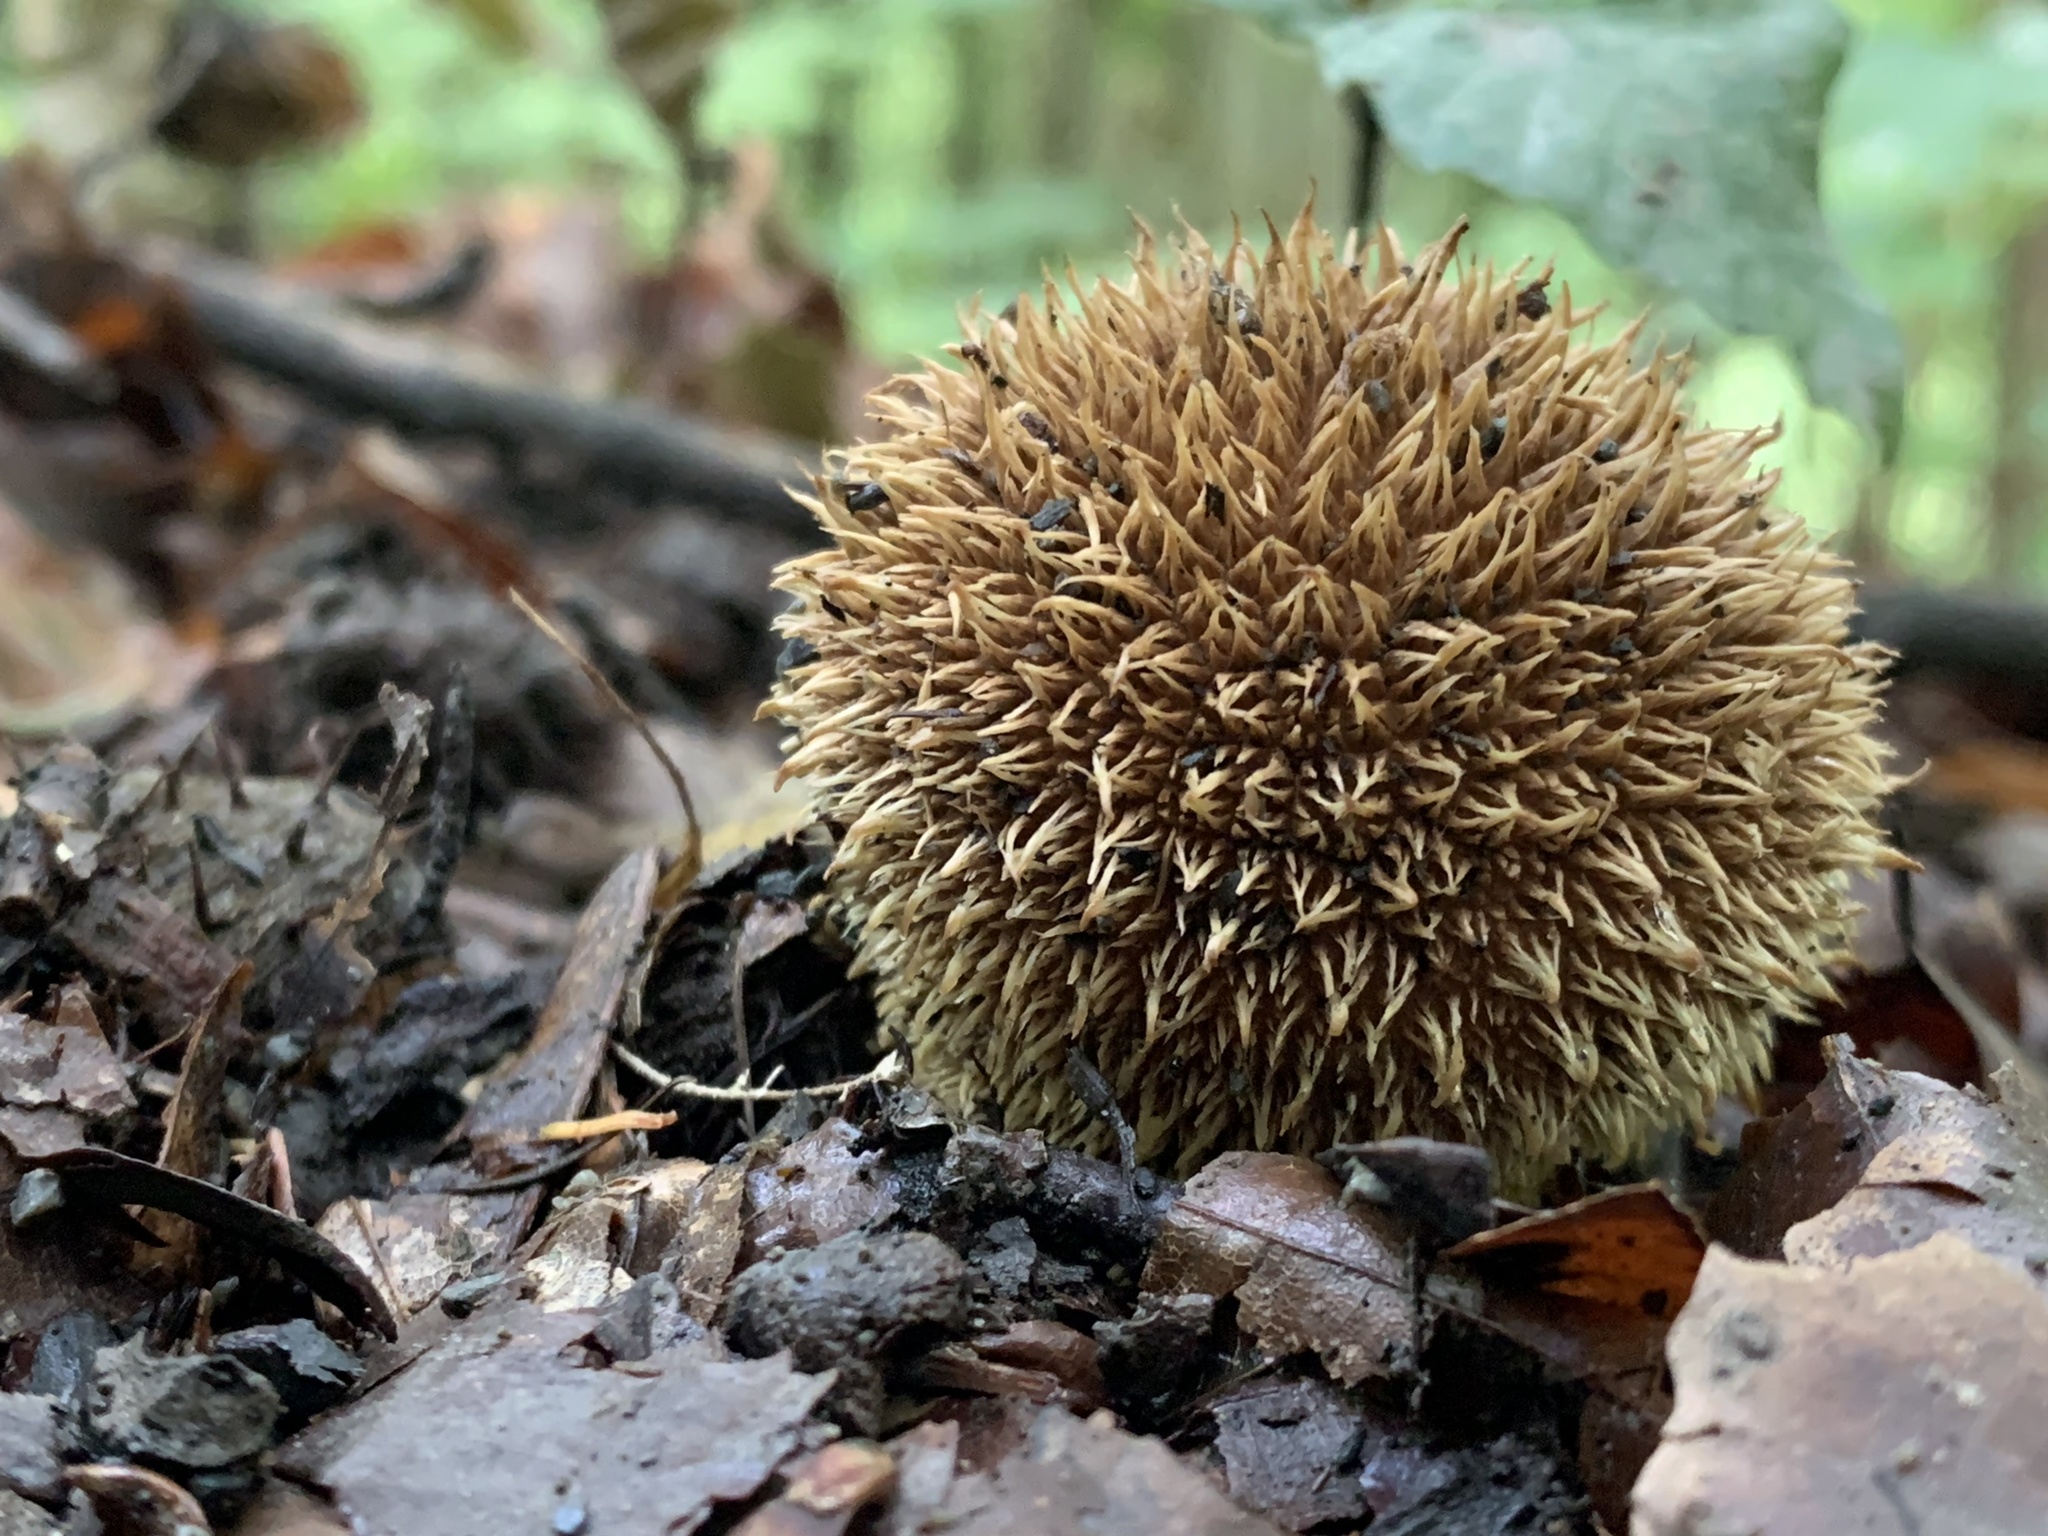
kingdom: Fungi
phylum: Basidiomycota
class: Agaricomycetes
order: Agaricales
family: Lycoperdaceae
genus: Lycoperdon
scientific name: Lycoperdon echinatum
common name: Hedgehog puffball
